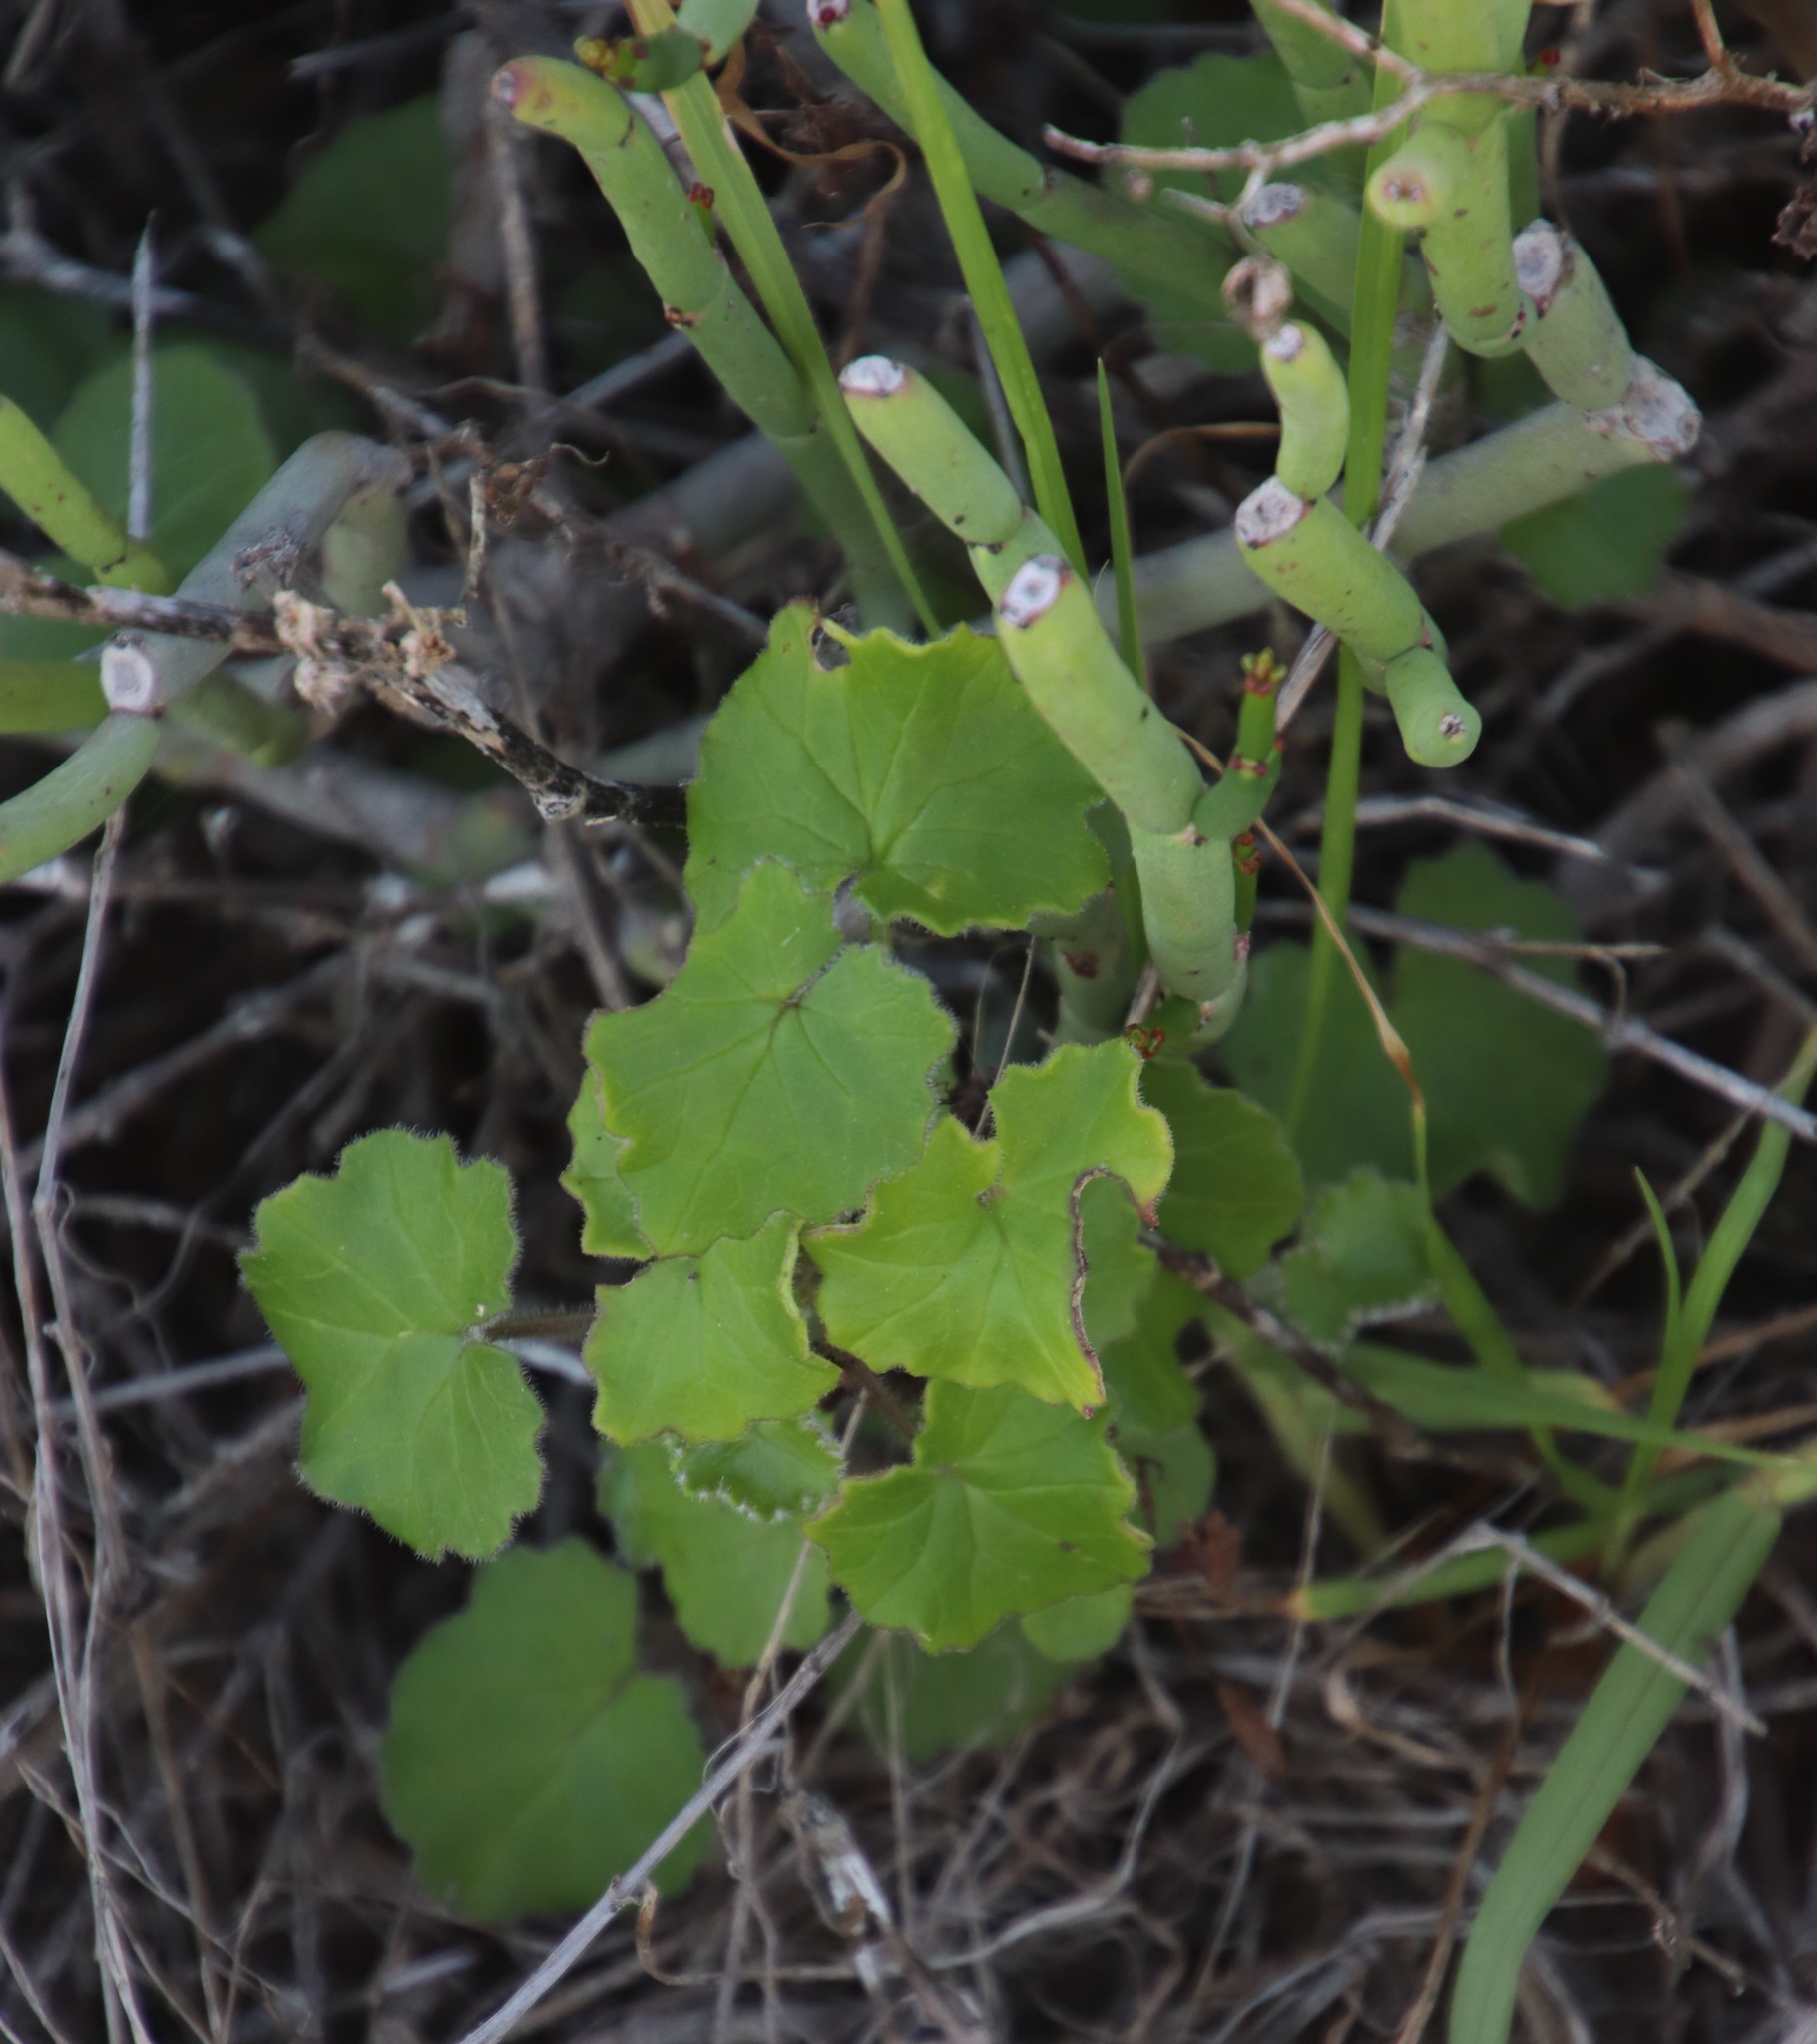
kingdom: Plantae
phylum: Tracheophyta
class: Magnoliopsida
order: Asterales
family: Asteraceae
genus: Cineraria
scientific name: Cineraria geifolia
